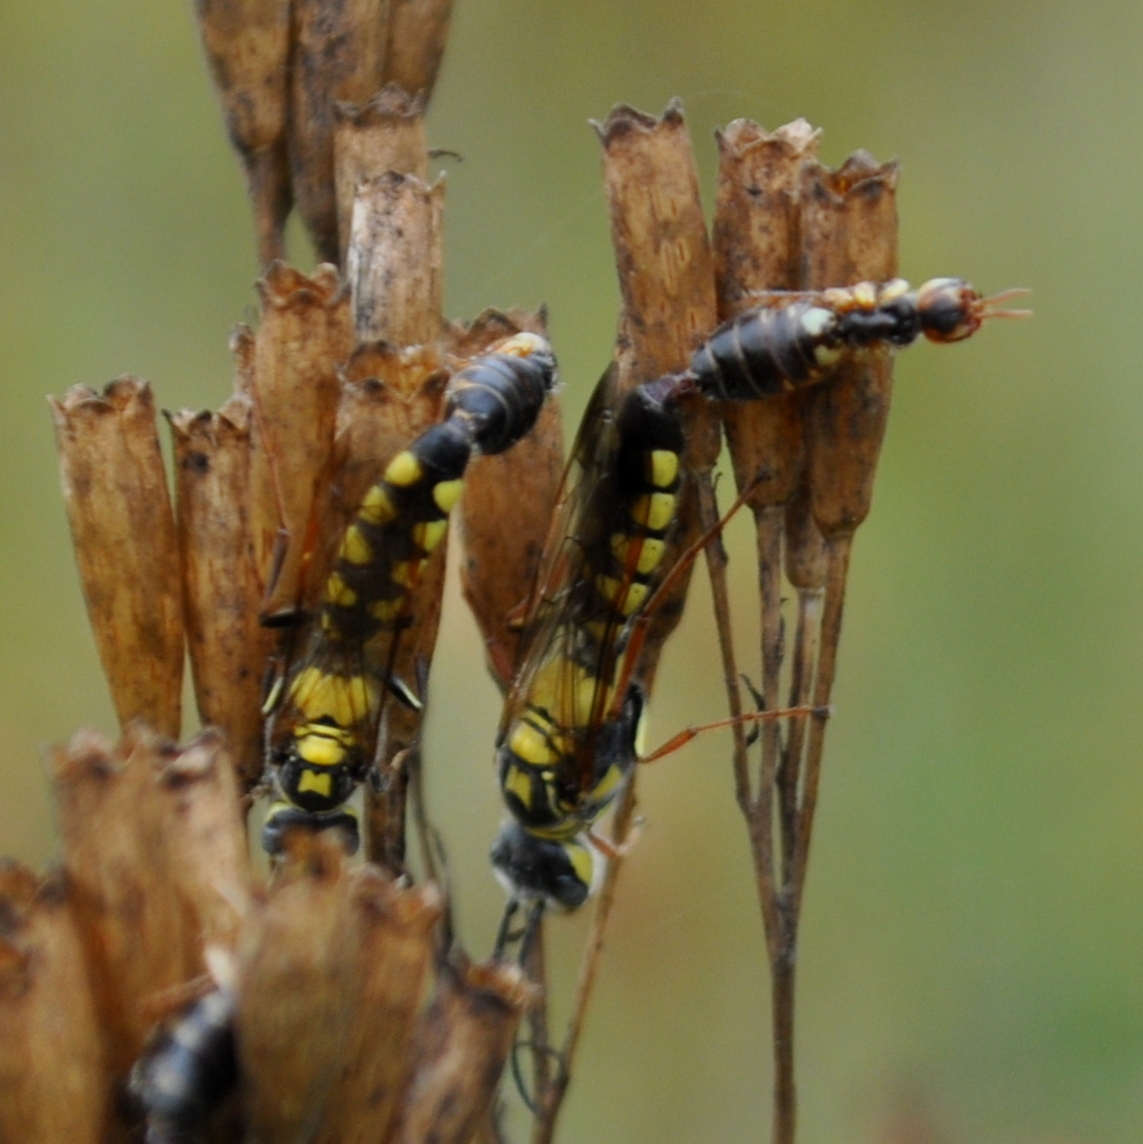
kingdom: Animalia
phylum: Arthropoda
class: Insecta
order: Hymenoptera
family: Thynnidae
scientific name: Thynnidae
